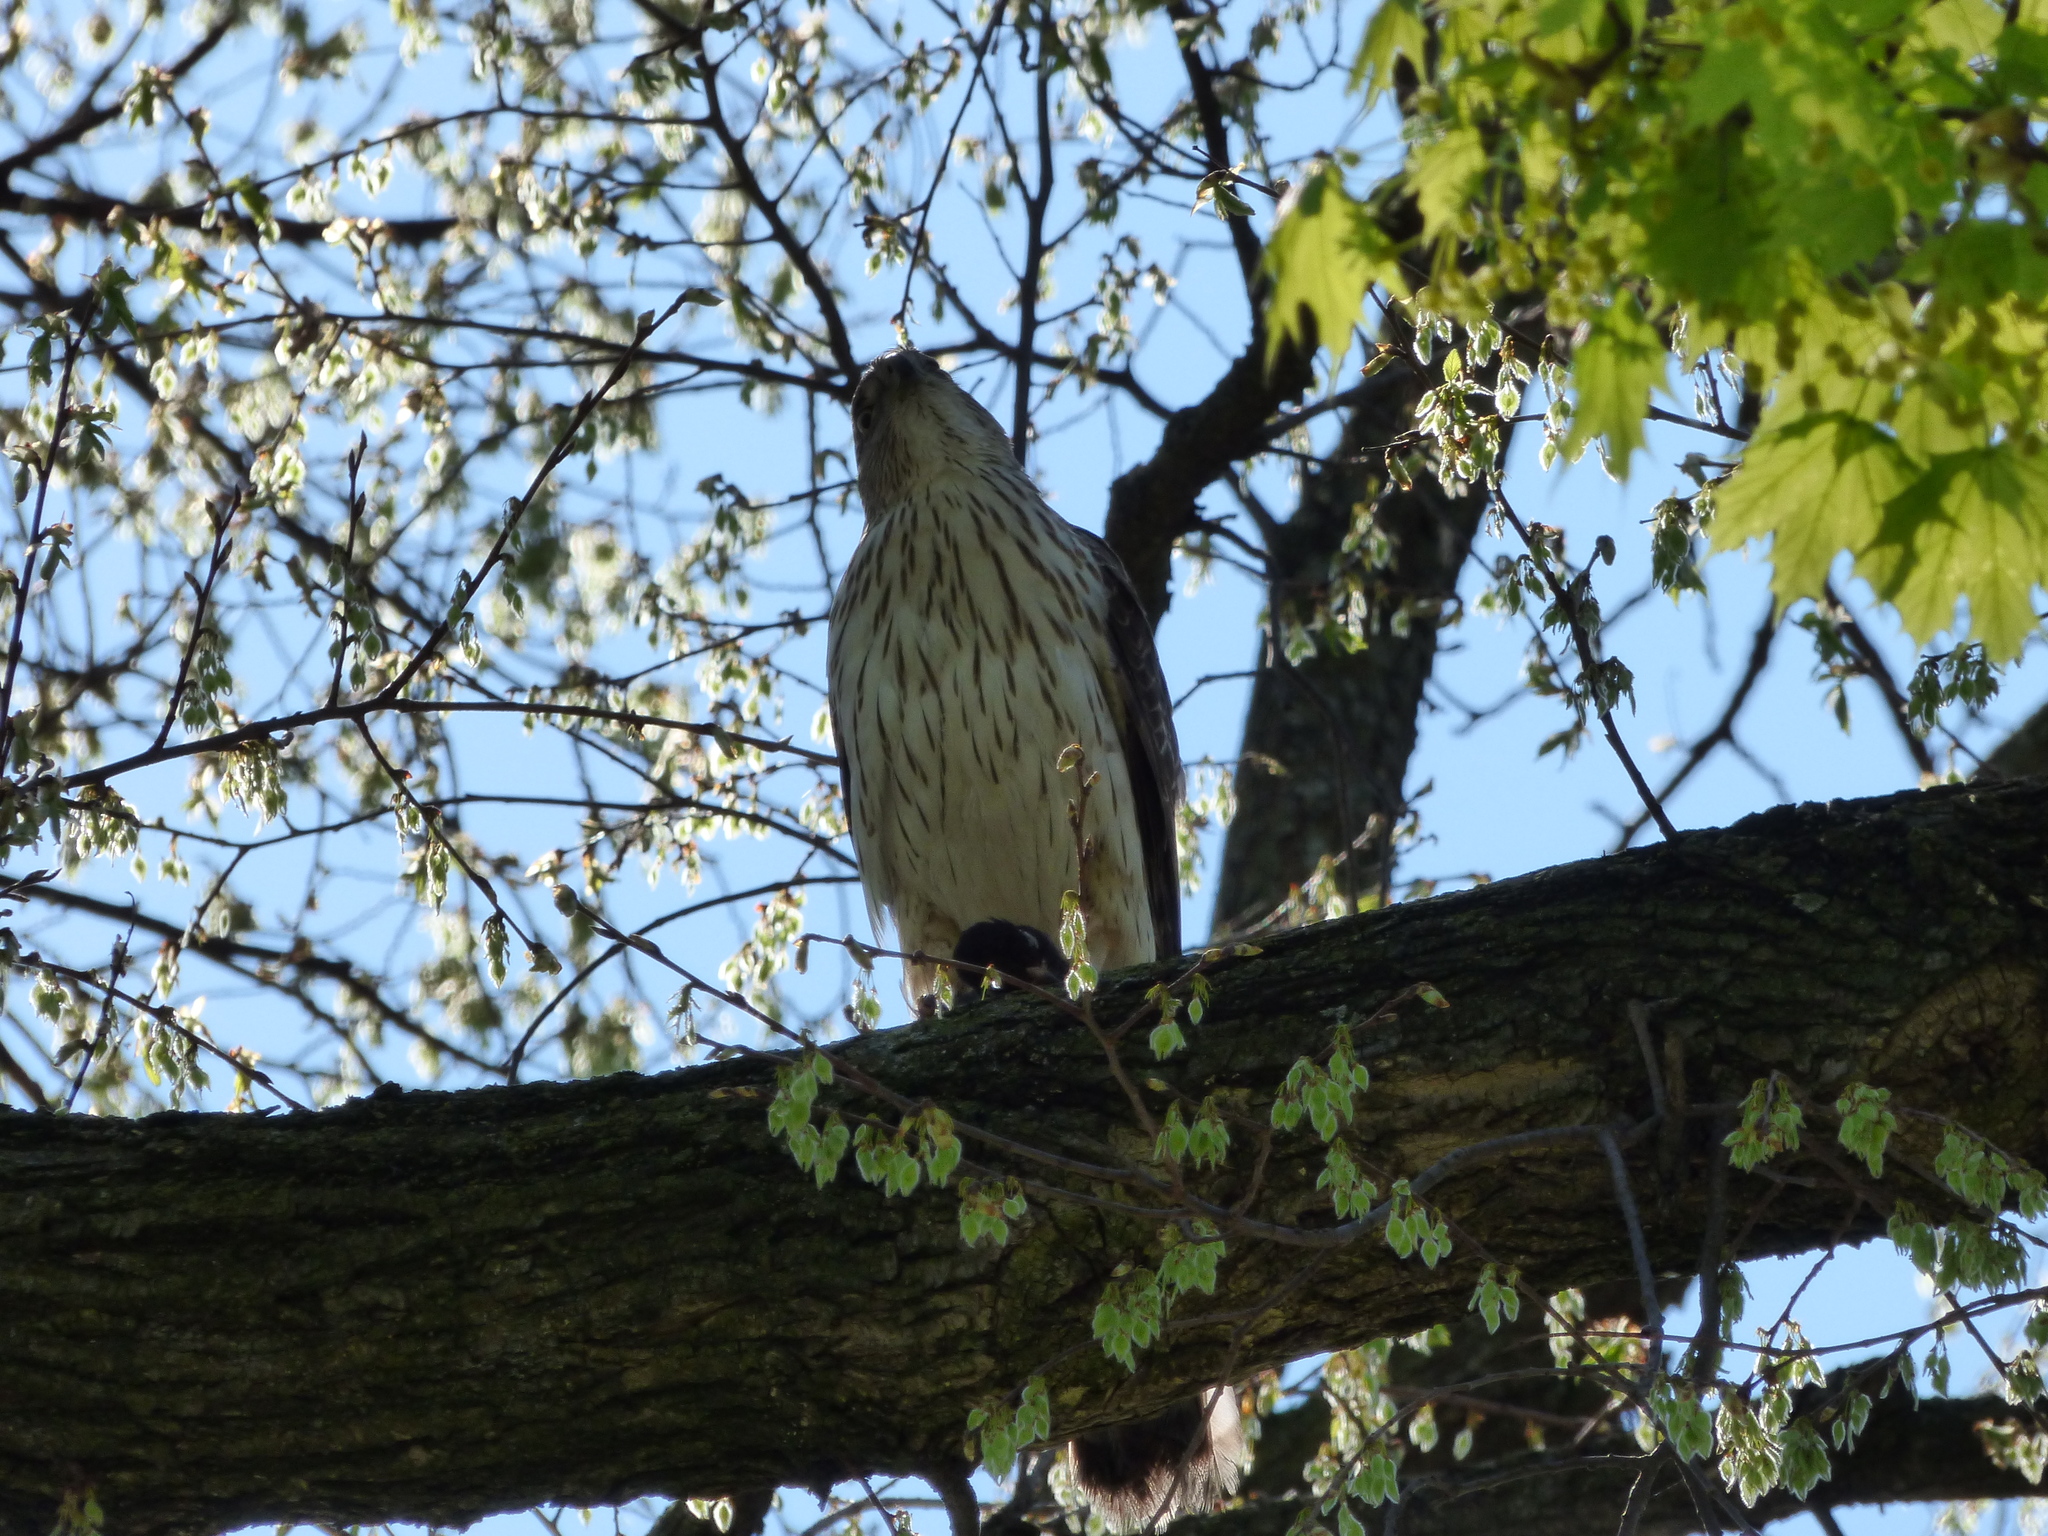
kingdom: Animalia
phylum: Chordata
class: Aves
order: Accipitriformes
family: Accipitridae
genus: Accipiter
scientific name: Accipiter cooperii
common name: Cooper's hawk
